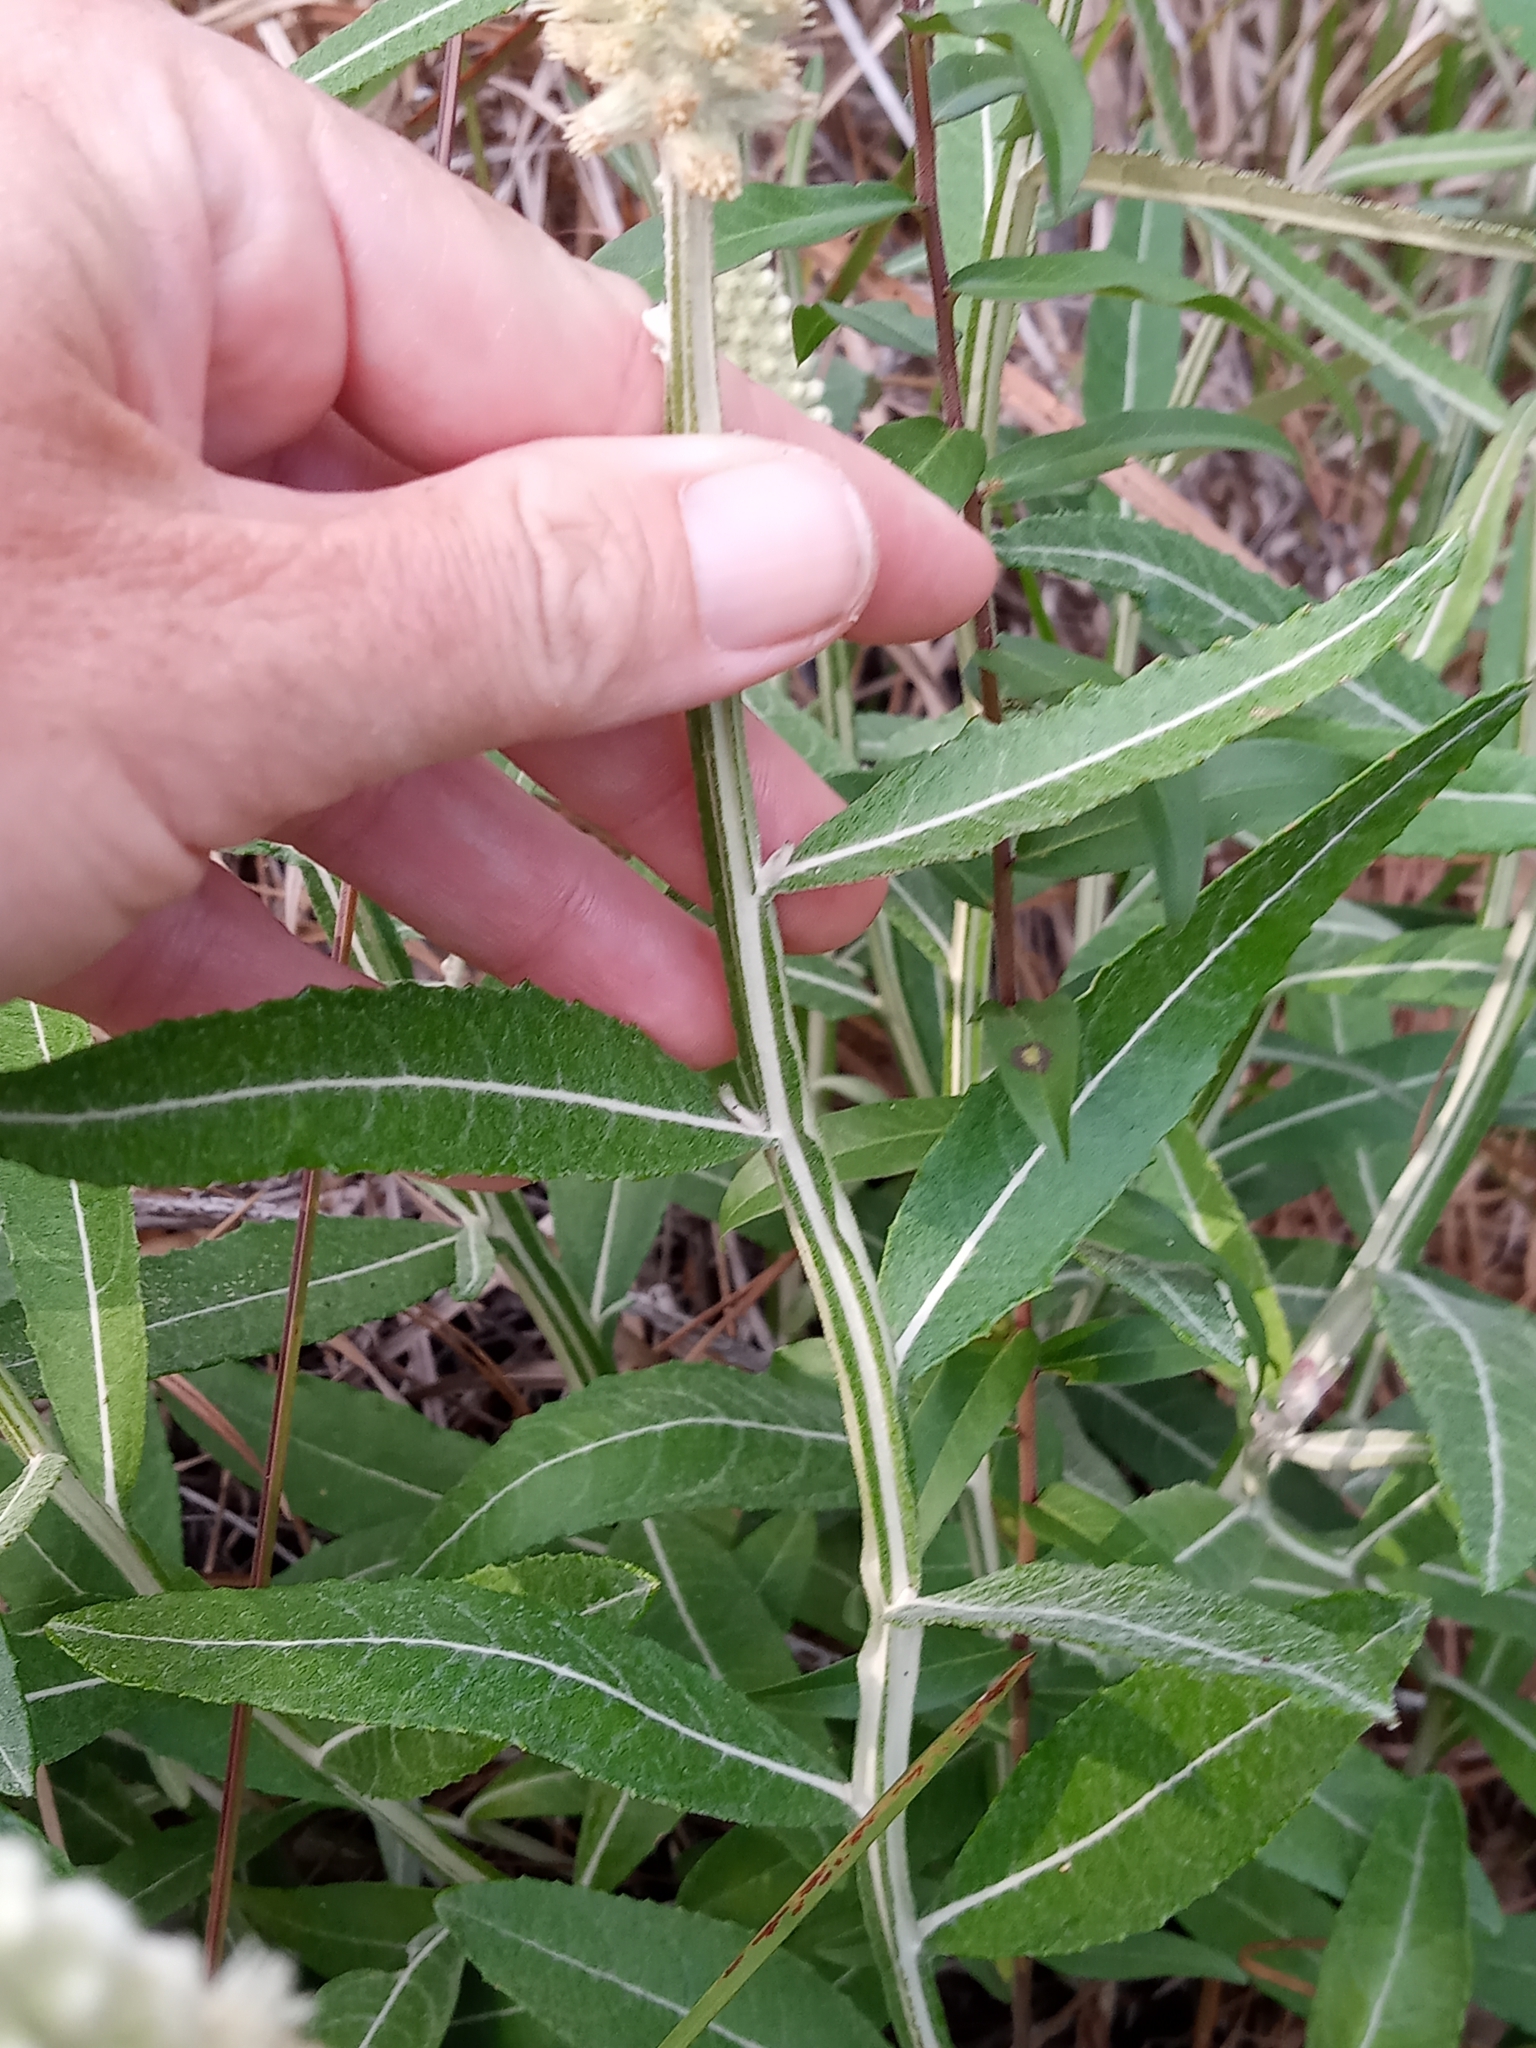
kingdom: Plantae
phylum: Tracheophyta
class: Magnoliopsida
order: Asterales
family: Asteraceae
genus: Pterocaulon
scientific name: Pterocaulon pycnostachyum
